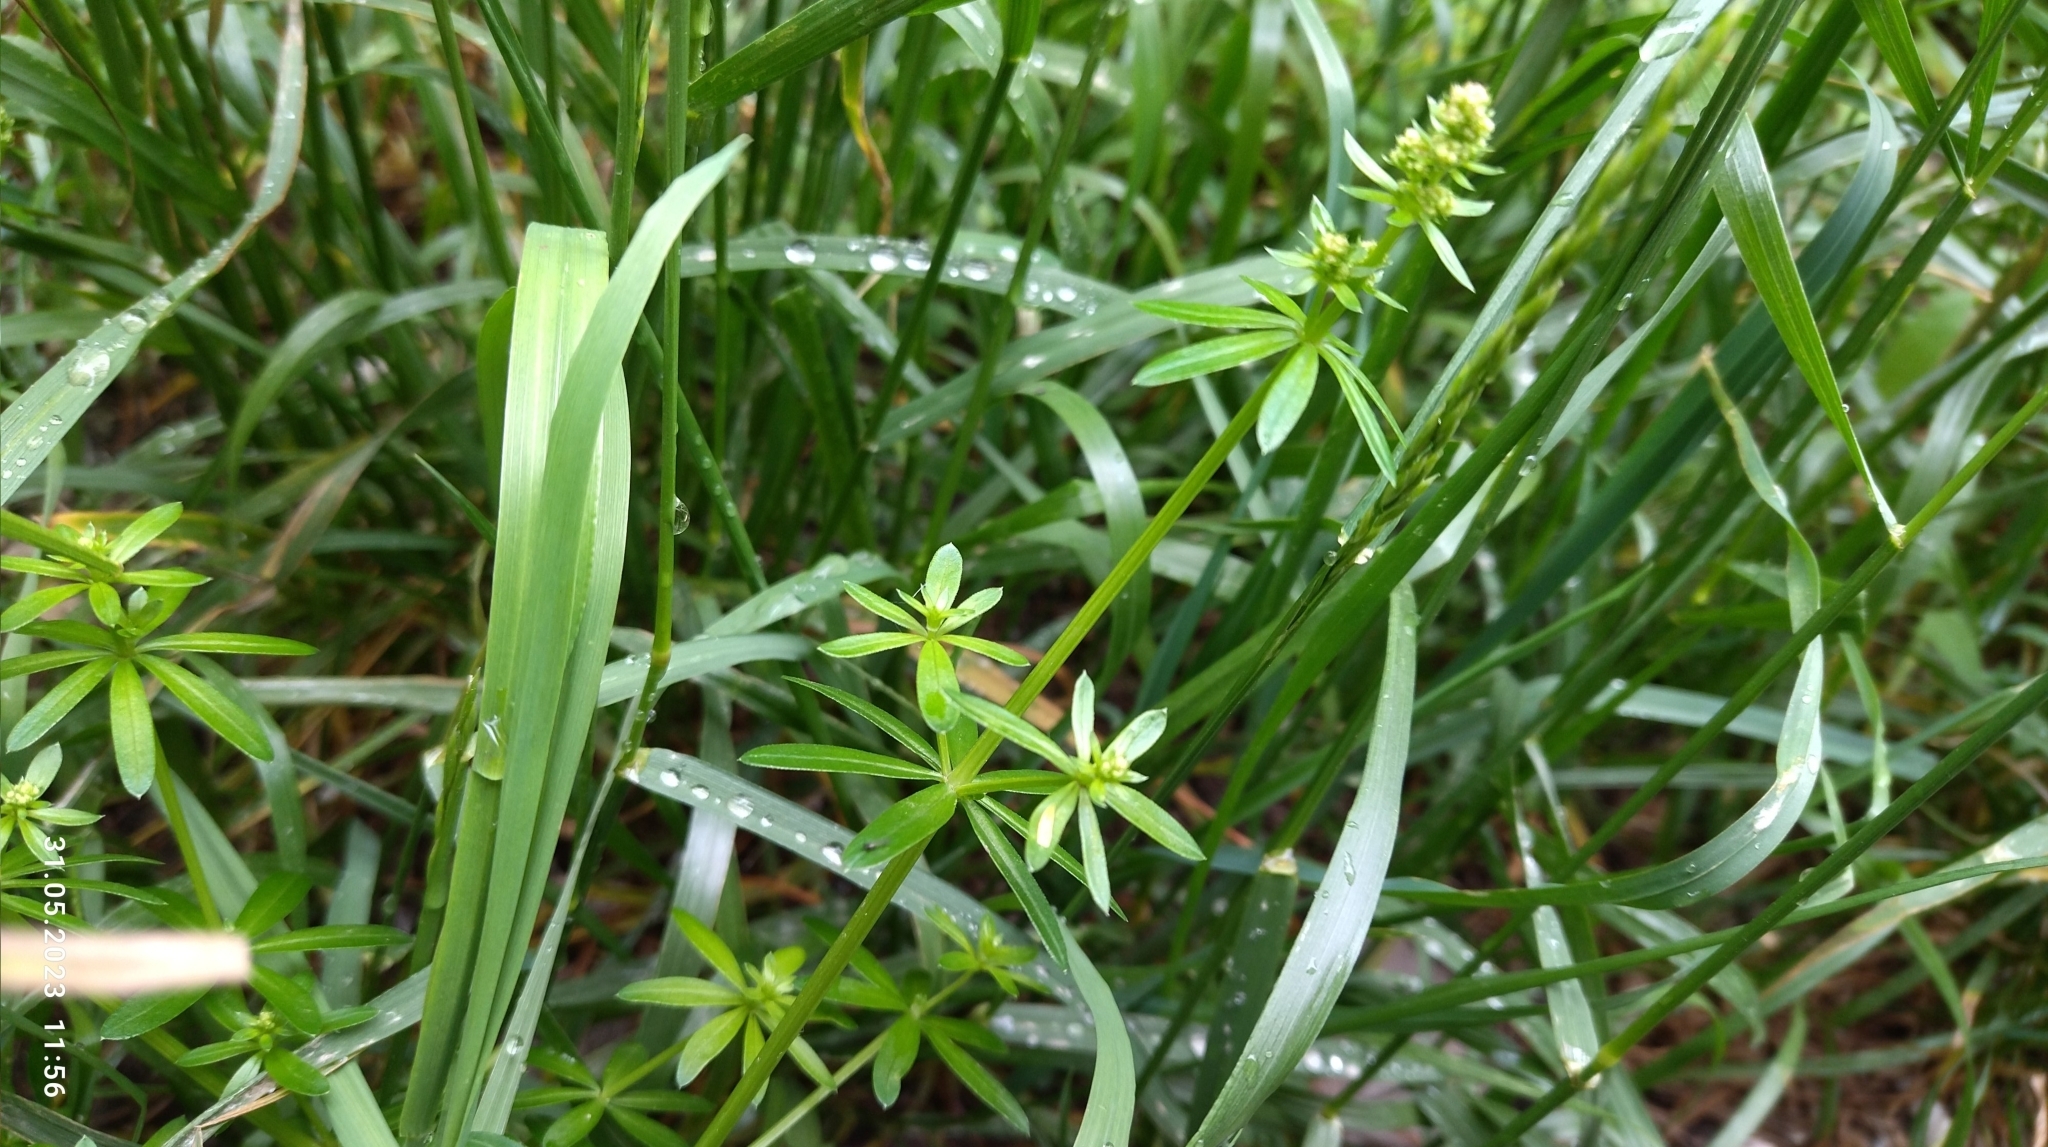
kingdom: Plantae
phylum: Tracheophyta
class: Magnoliopsida
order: Gentianales
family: Rubiaceae
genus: Galium
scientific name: Galium mollugo
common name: Hedge bedstraw
